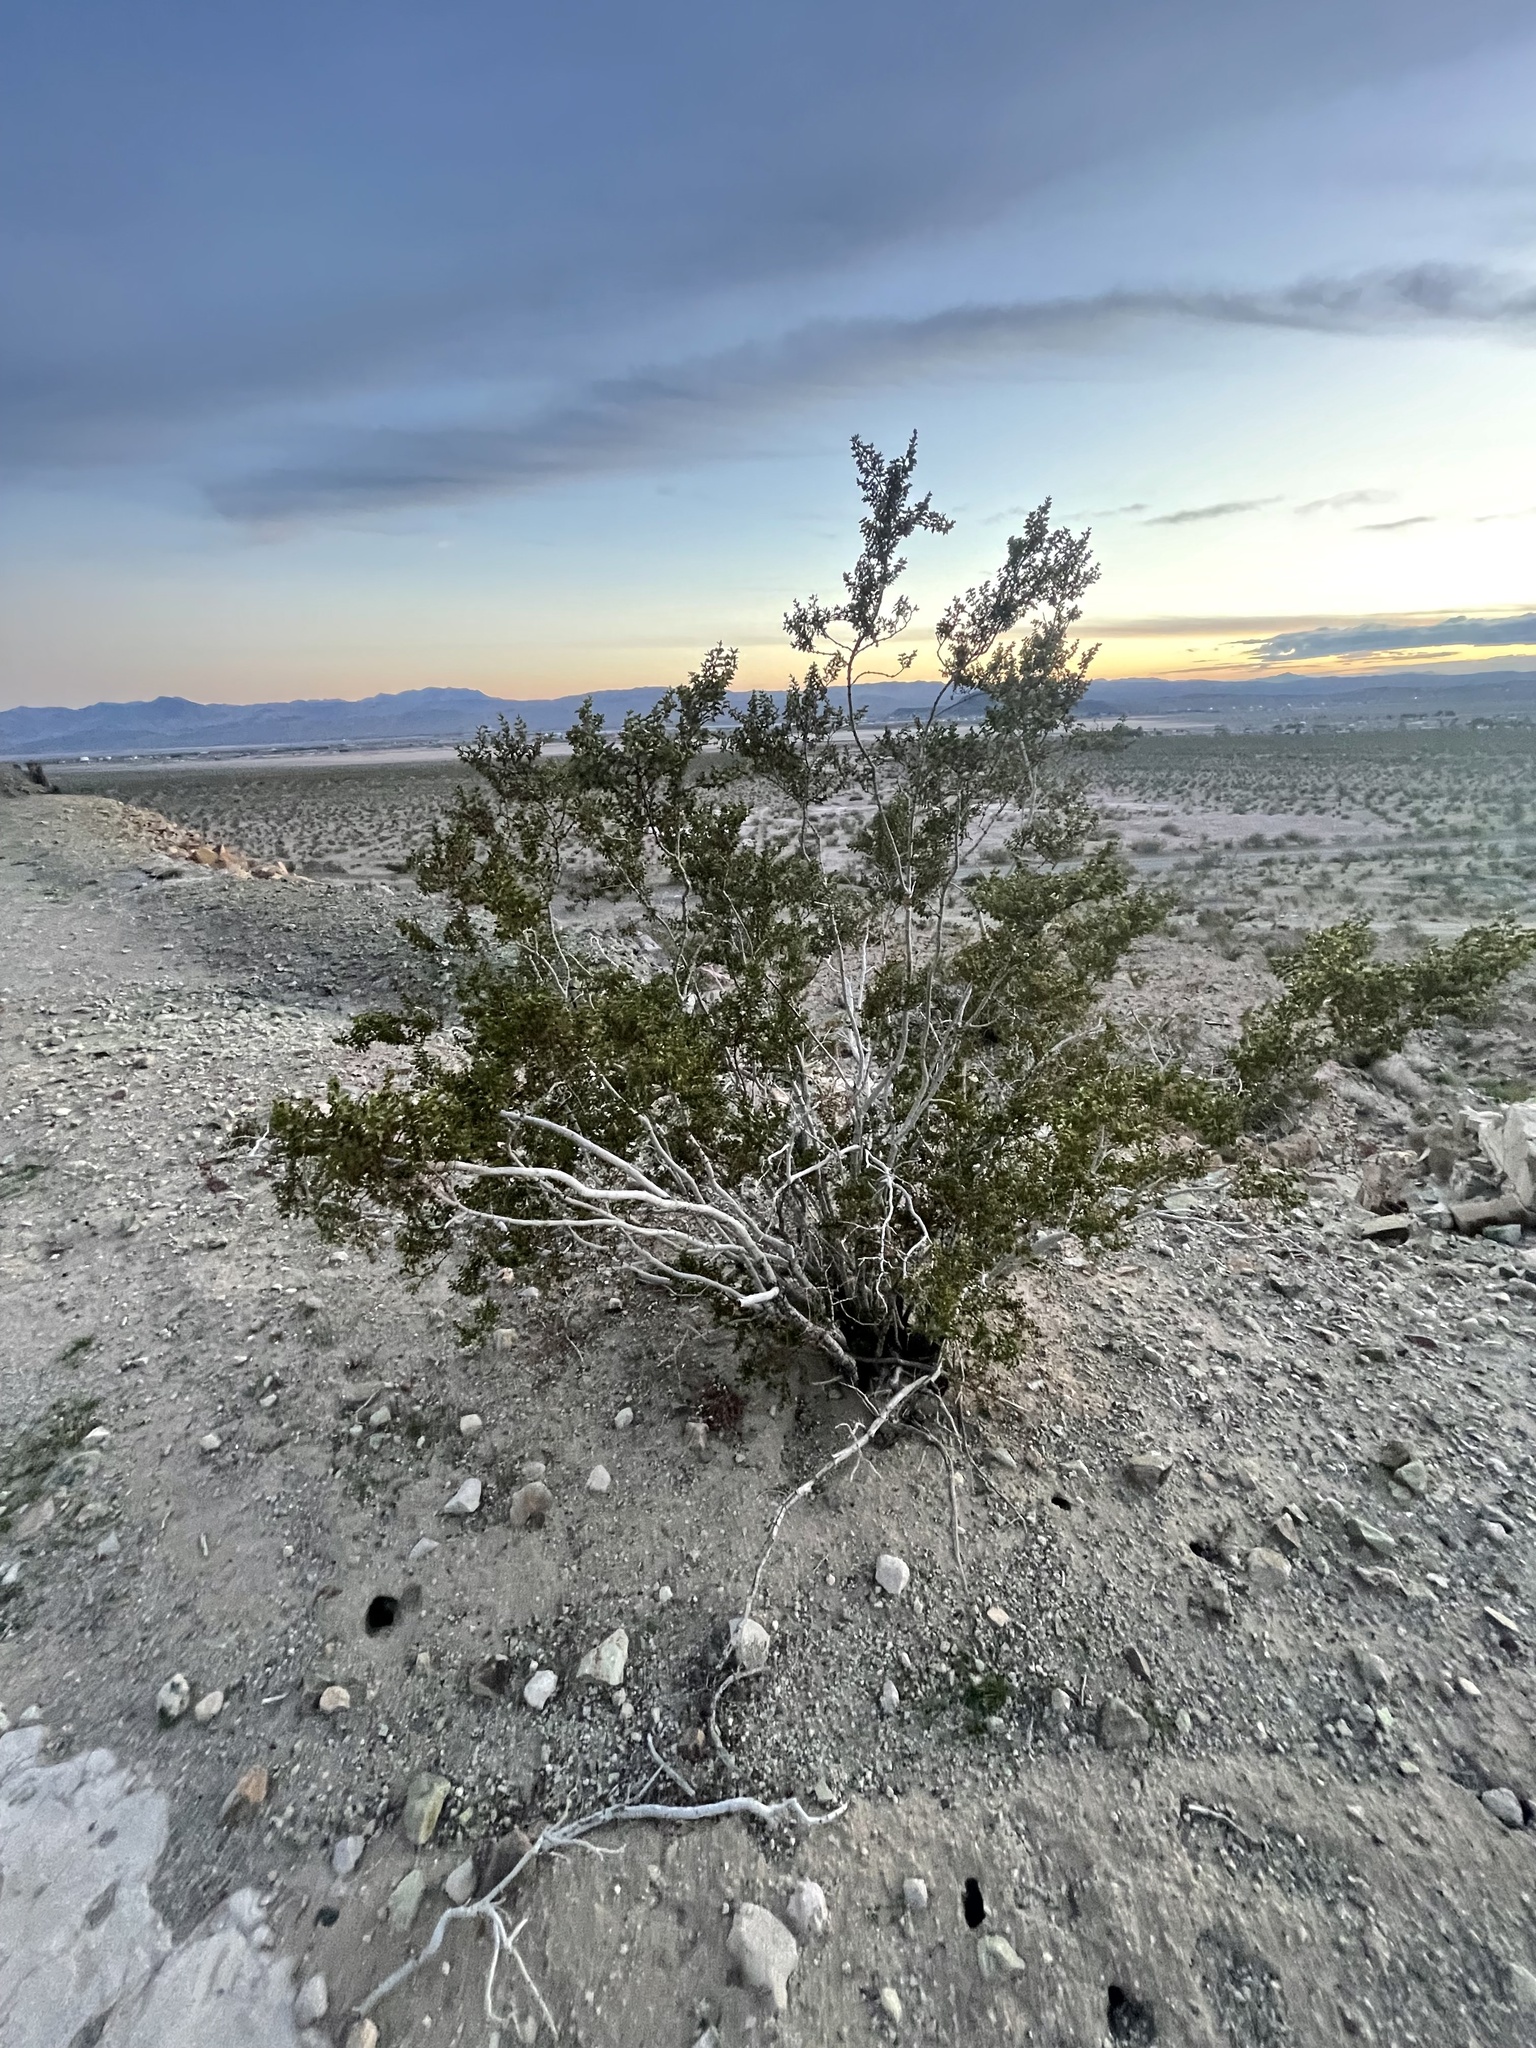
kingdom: Plantae
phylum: Tracheophyta
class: Magnoliopsida
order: Zygophyllales
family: Zygophyllaceae
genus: Larrea
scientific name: Larrea tridentata
